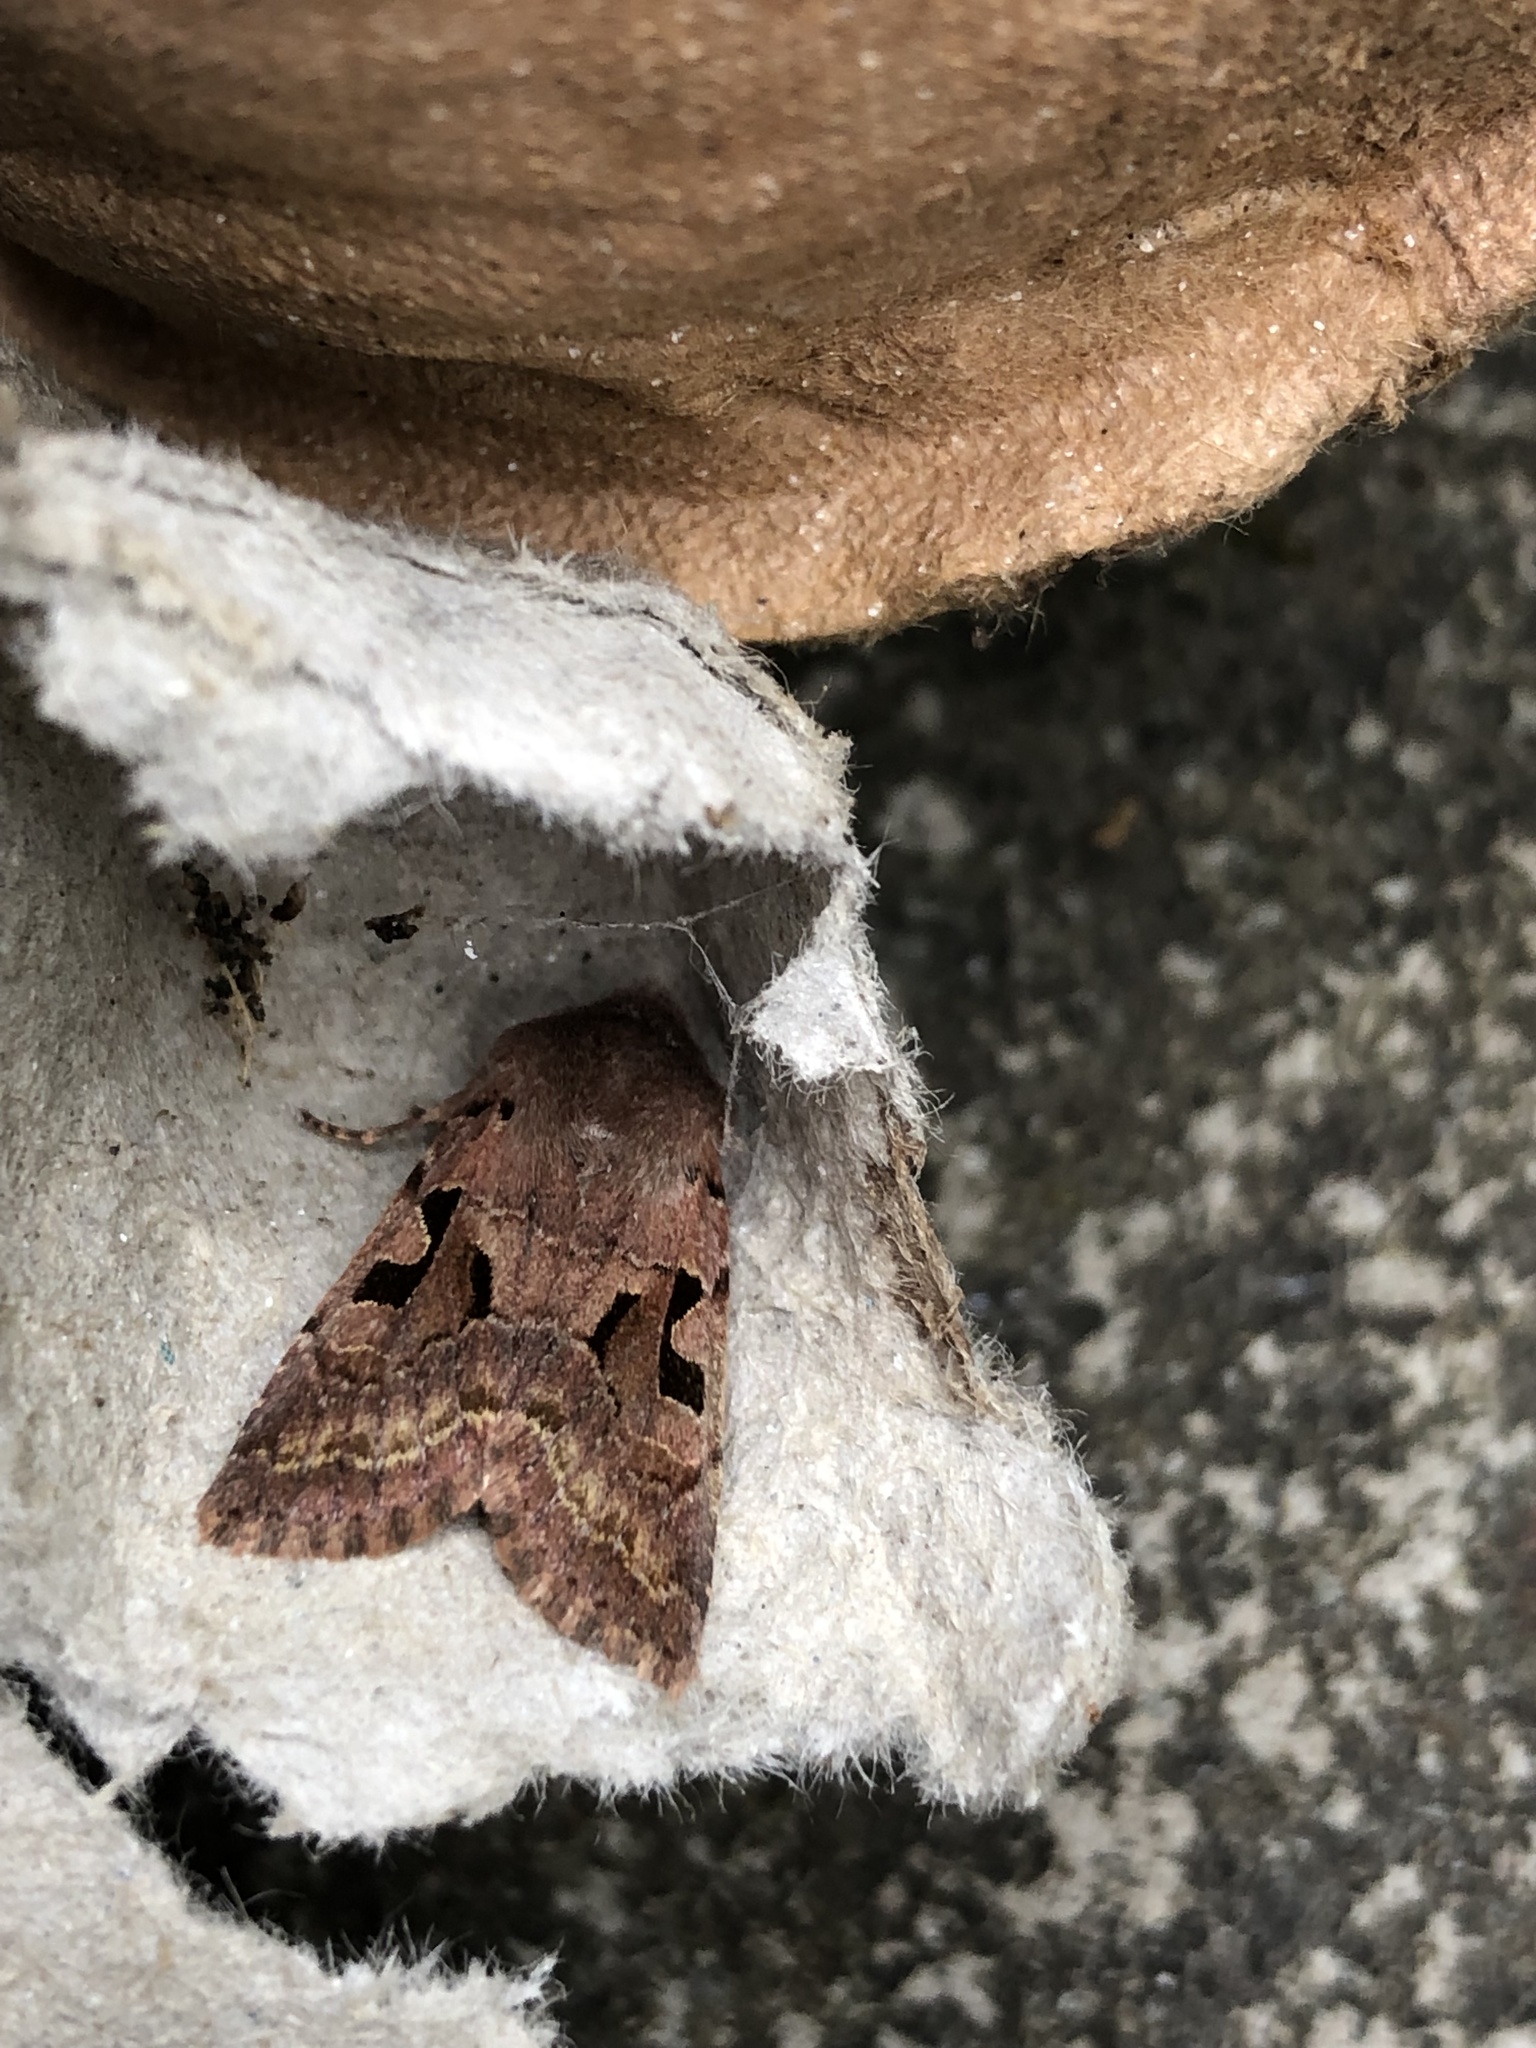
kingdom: Animalia
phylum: Arthropoda
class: Insecta
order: Lepidoptera
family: Noctuidae
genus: Orthosia
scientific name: Orthosia gothica
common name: Hebrew character
